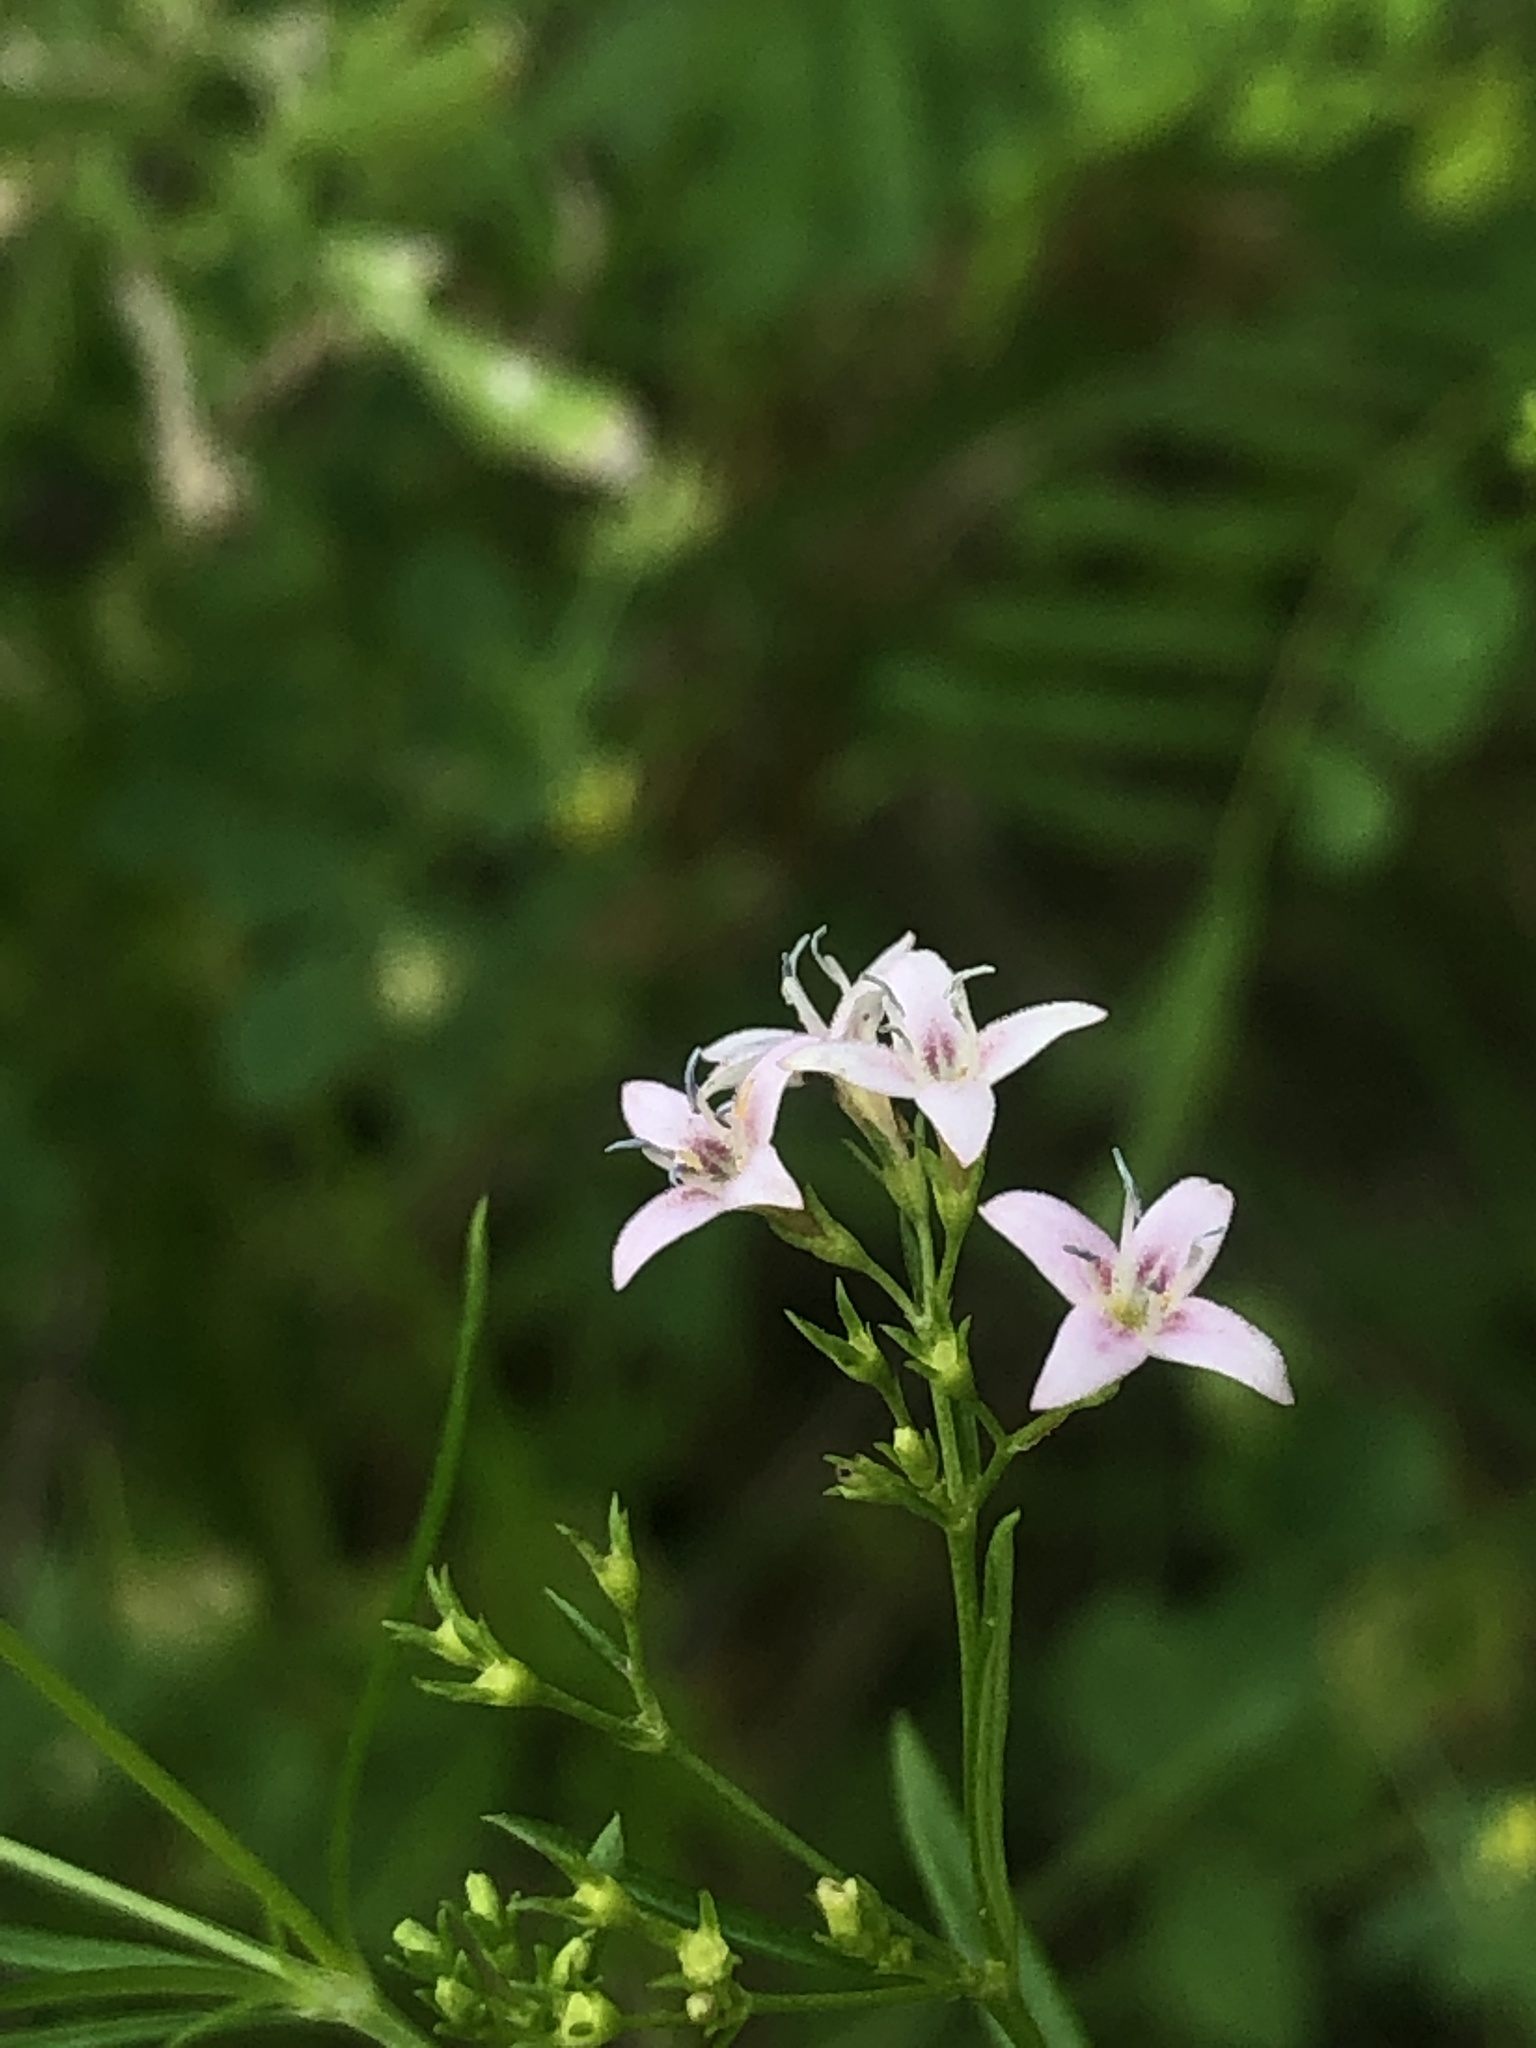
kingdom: Plantae
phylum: Tracheophyta
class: Magnoliopsida
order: Gentianales
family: Rubiaceae
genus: Stenaria
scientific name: Stenaria nigricans
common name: Diamondflowers
